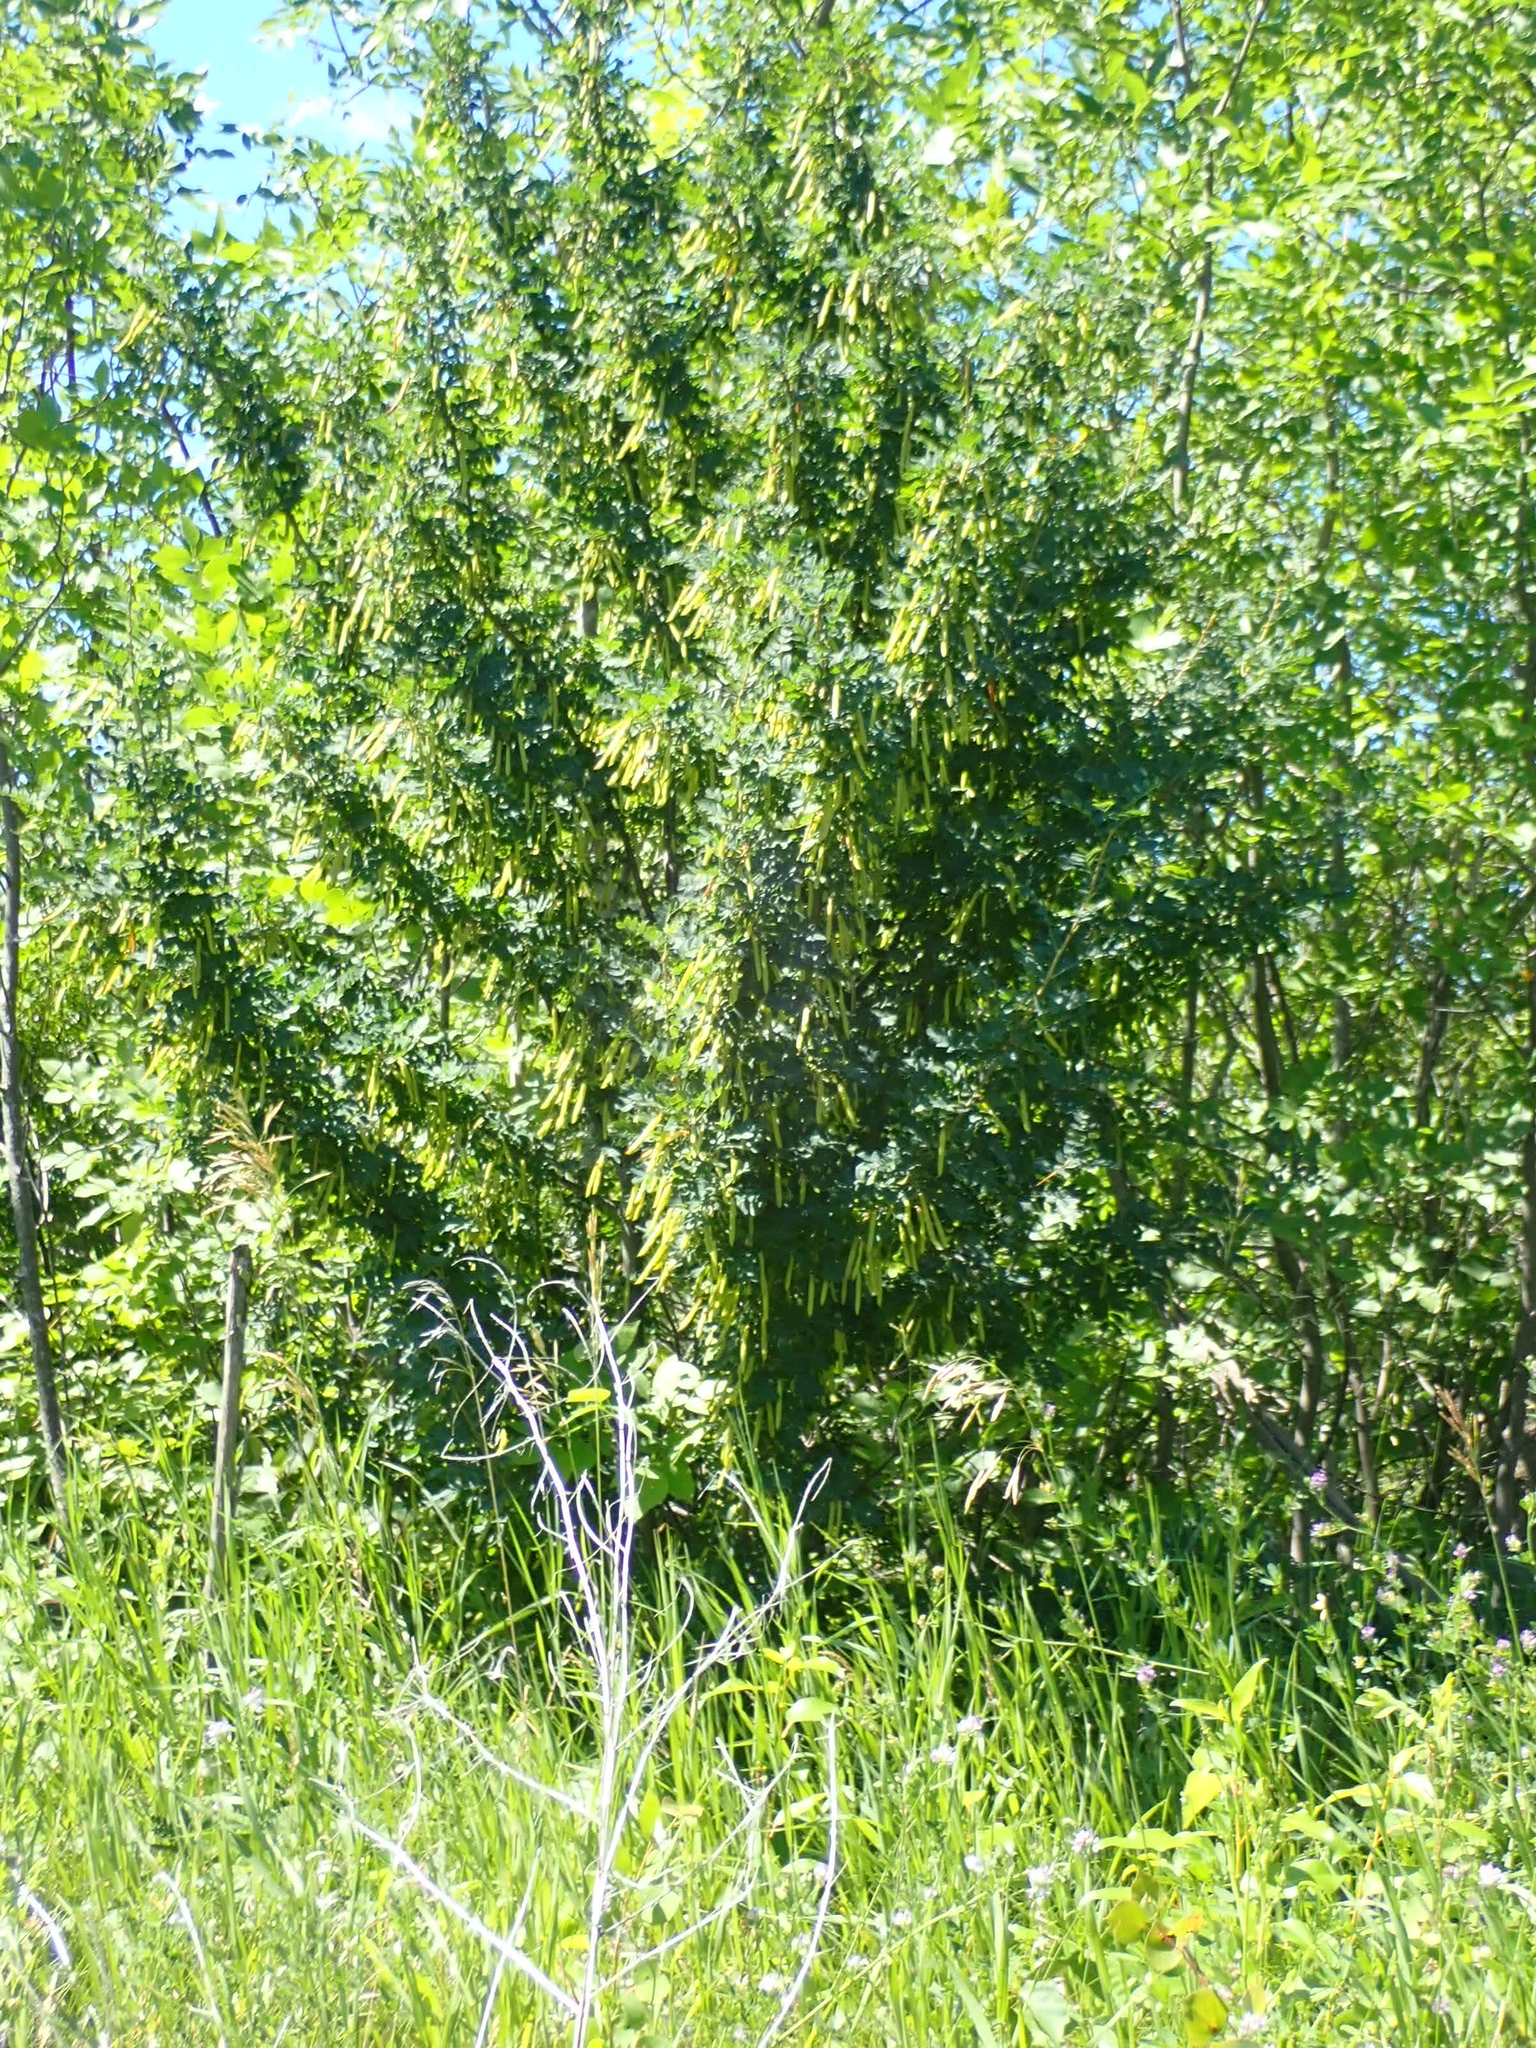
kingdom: Plantae
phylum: Tracheophyta
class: Magnoliopsida
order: Fabales
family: Fabaceae
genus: Caragana
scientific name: Caragana arborescens
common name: Siberian peashrub
